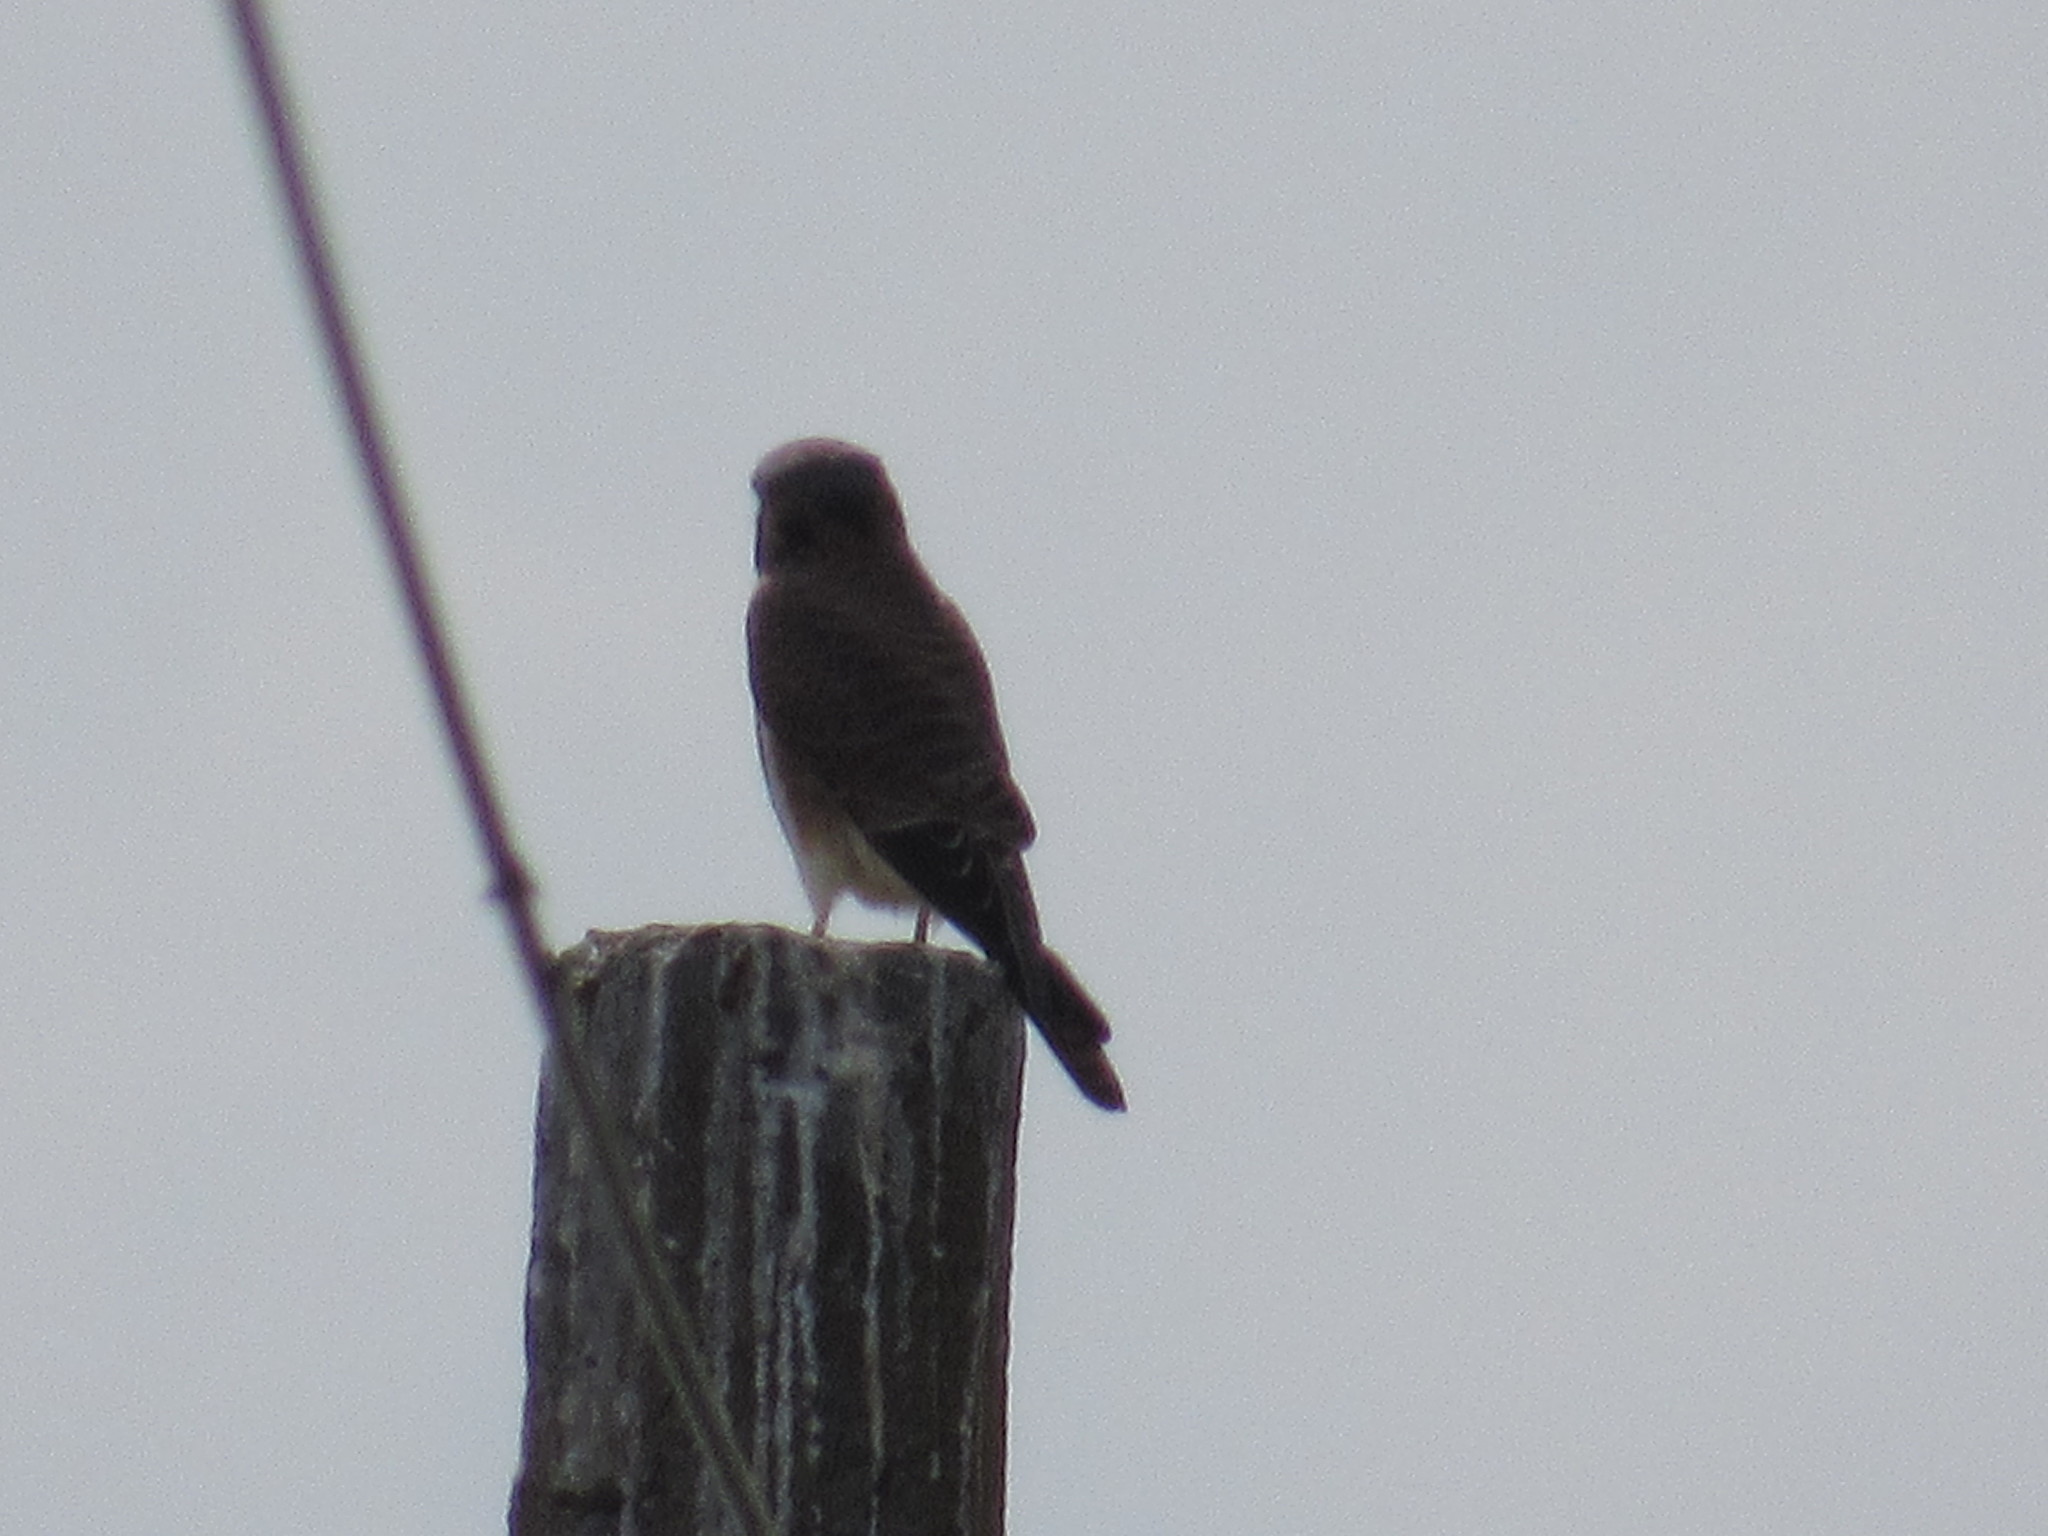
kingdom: Animalia
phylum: Chordata
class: Aves
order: Falconiformes
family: Falconidae
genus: Falco
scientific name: Falco sparverius
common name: American kestrel
